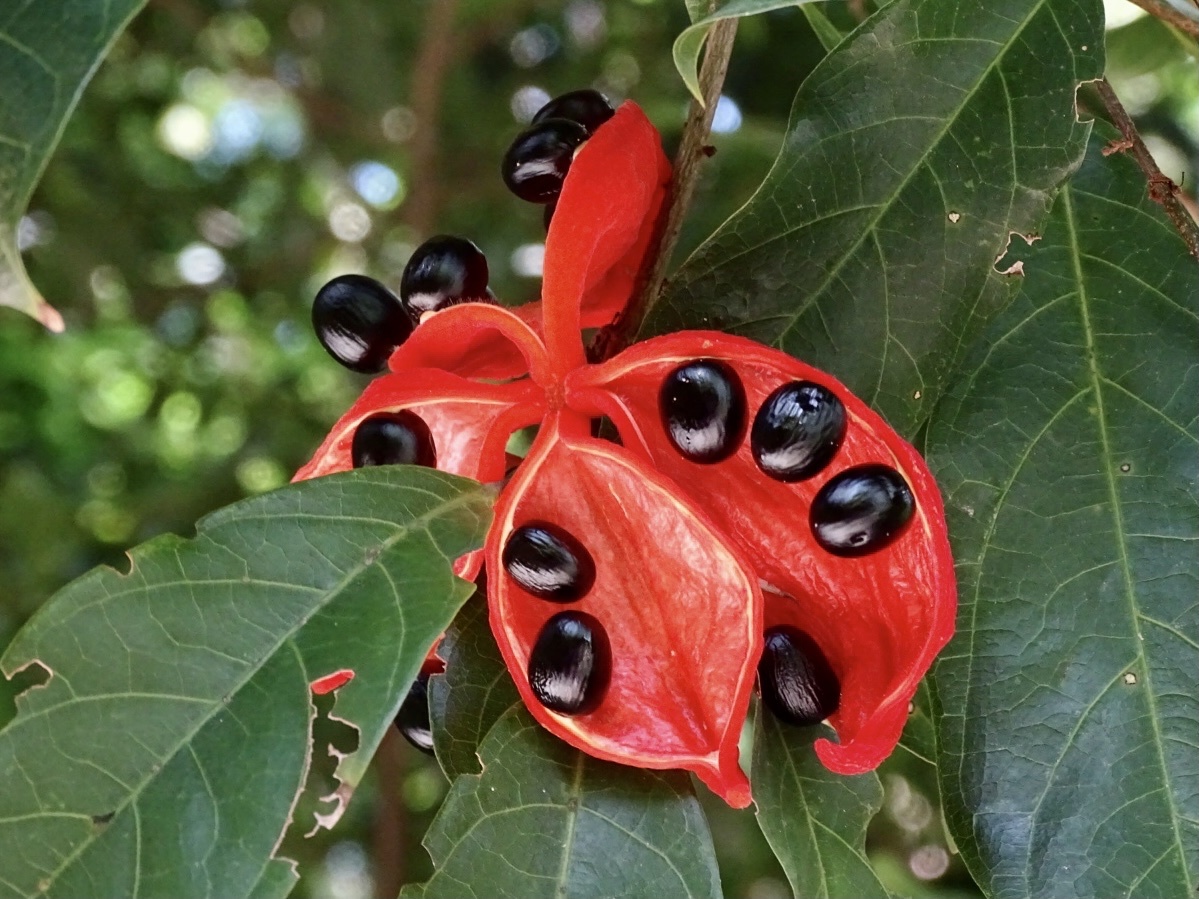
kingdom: Plantae
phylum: Tracheophyta
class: Magnoliopsida
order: Malvales
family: Malvaceae
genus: Sterculia
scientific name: Sterculia lanceolata
